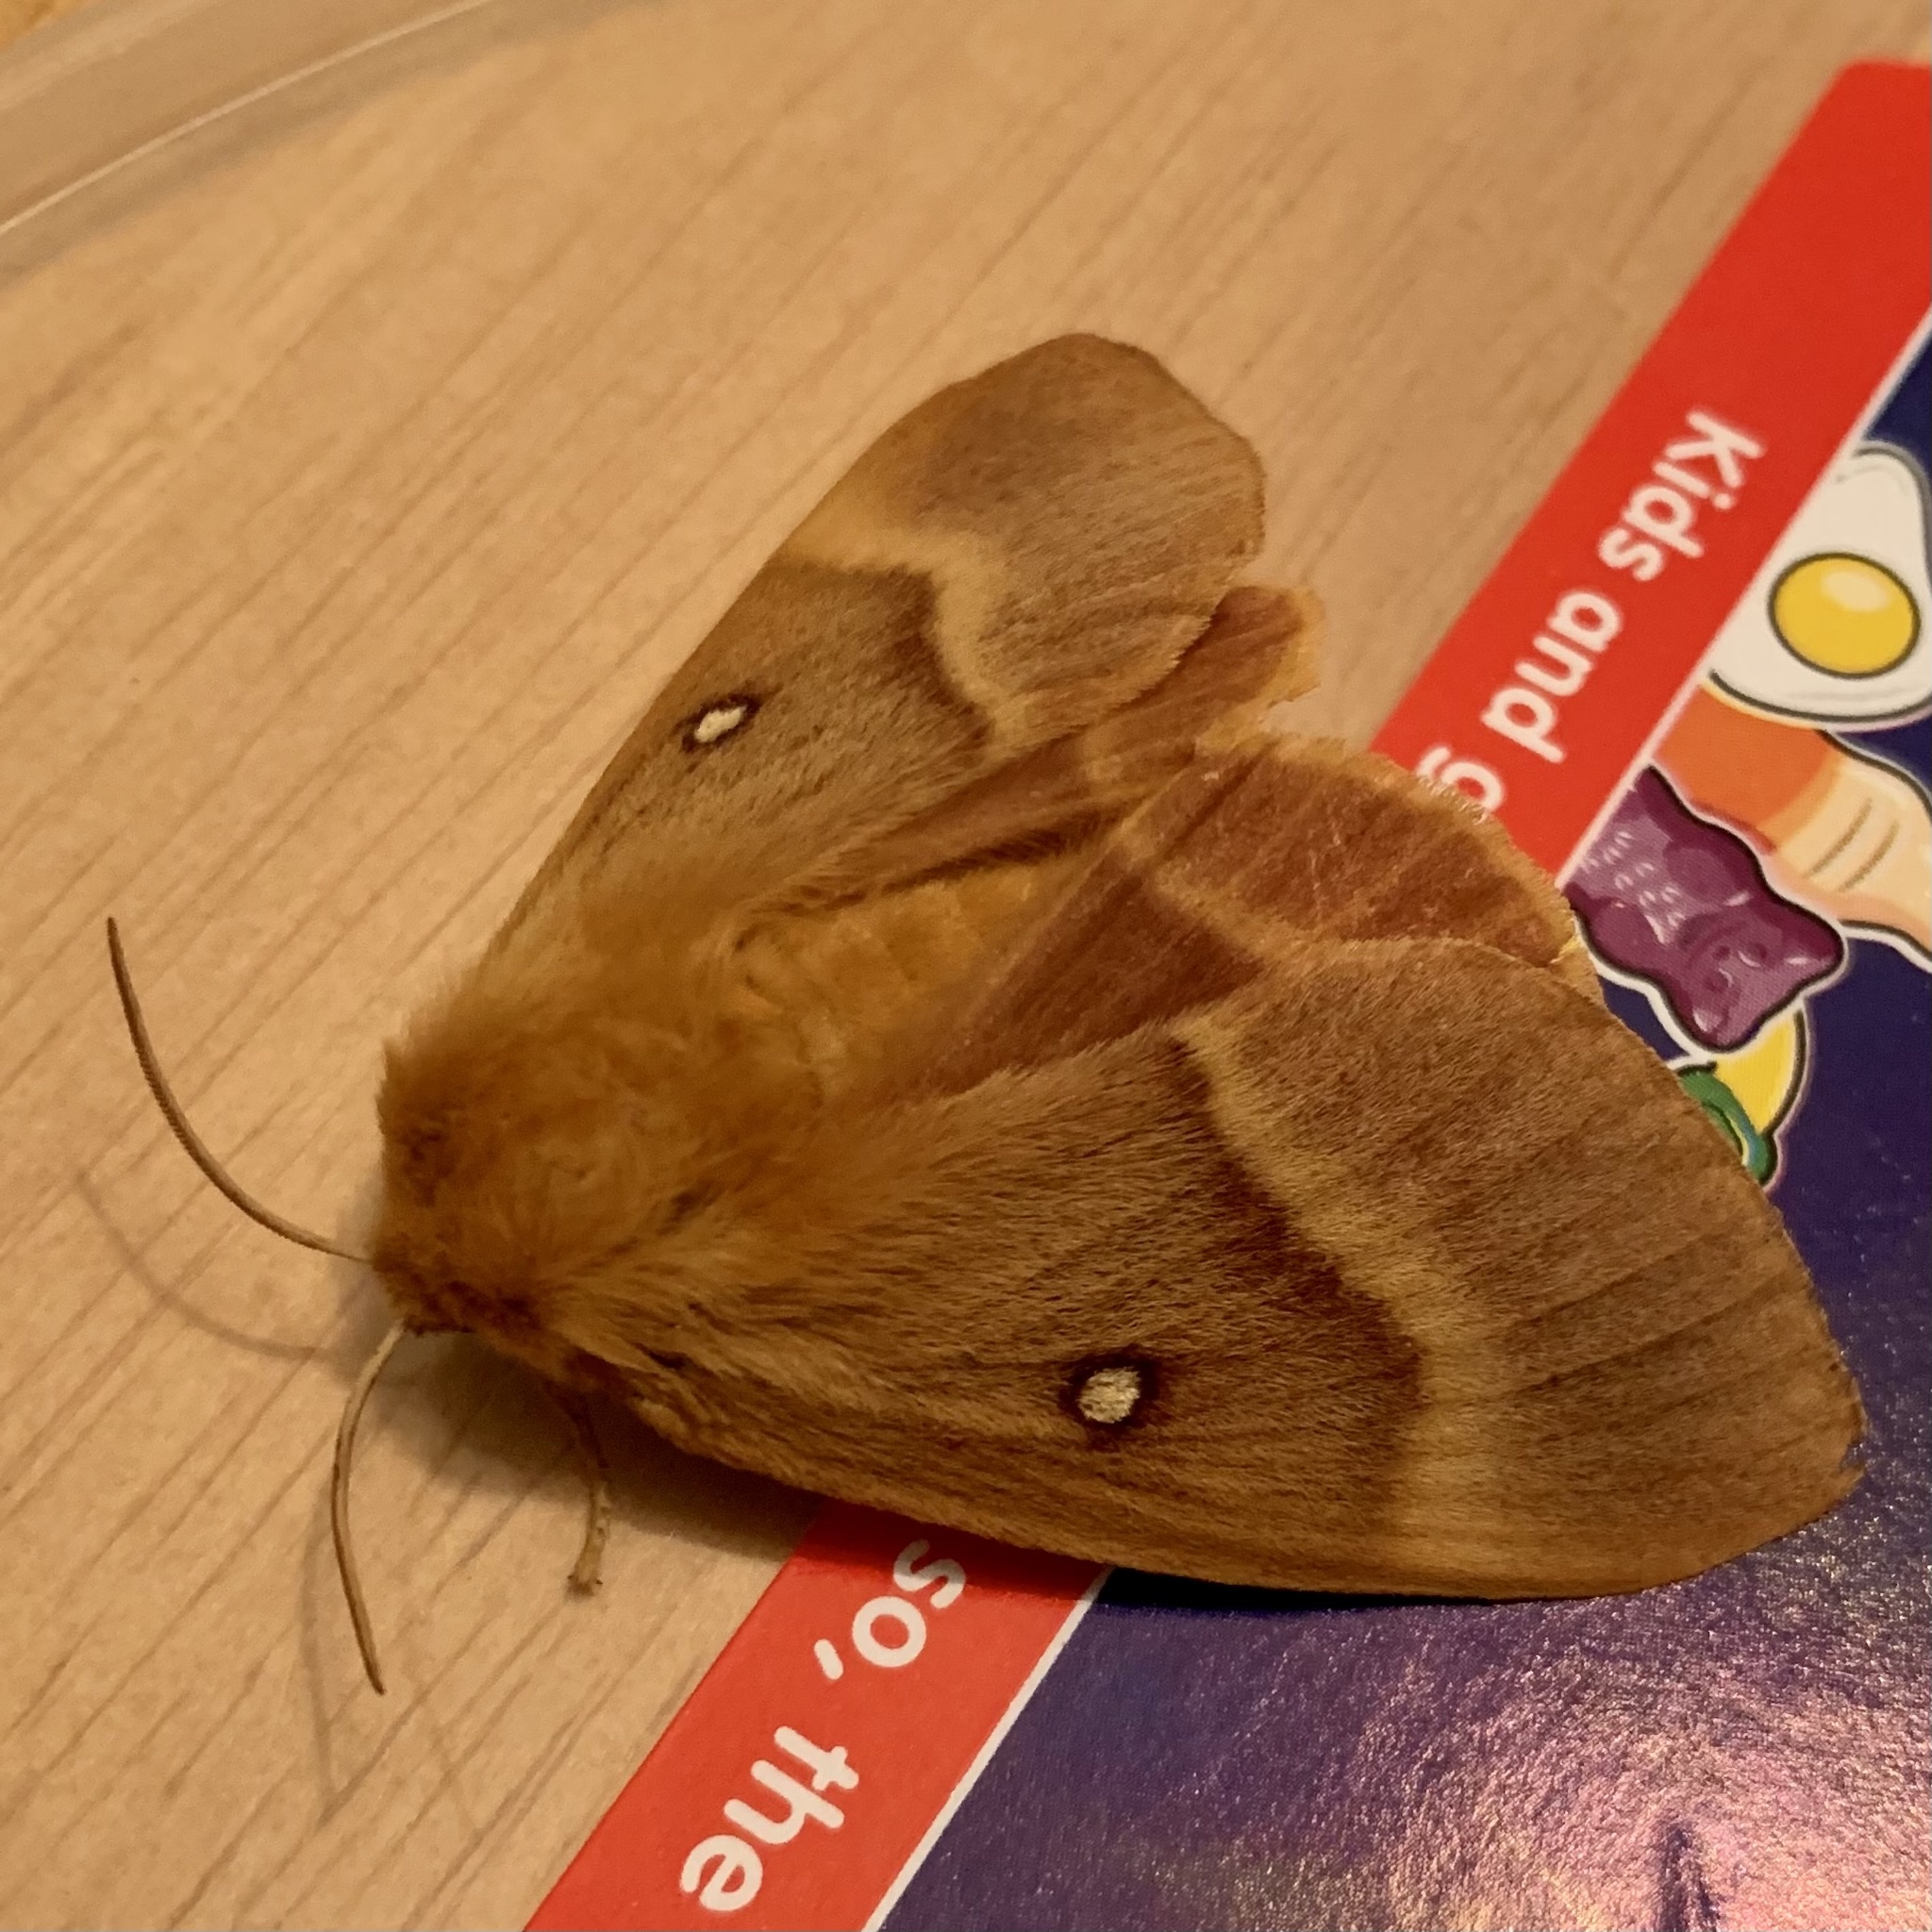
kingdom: Animalia
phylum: Arthropoda
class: Insecta
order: Lepidoptera
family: Lasiocampidae
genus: Lasiocampa
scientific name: Lasiocampa quercus
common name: Oak eggar
